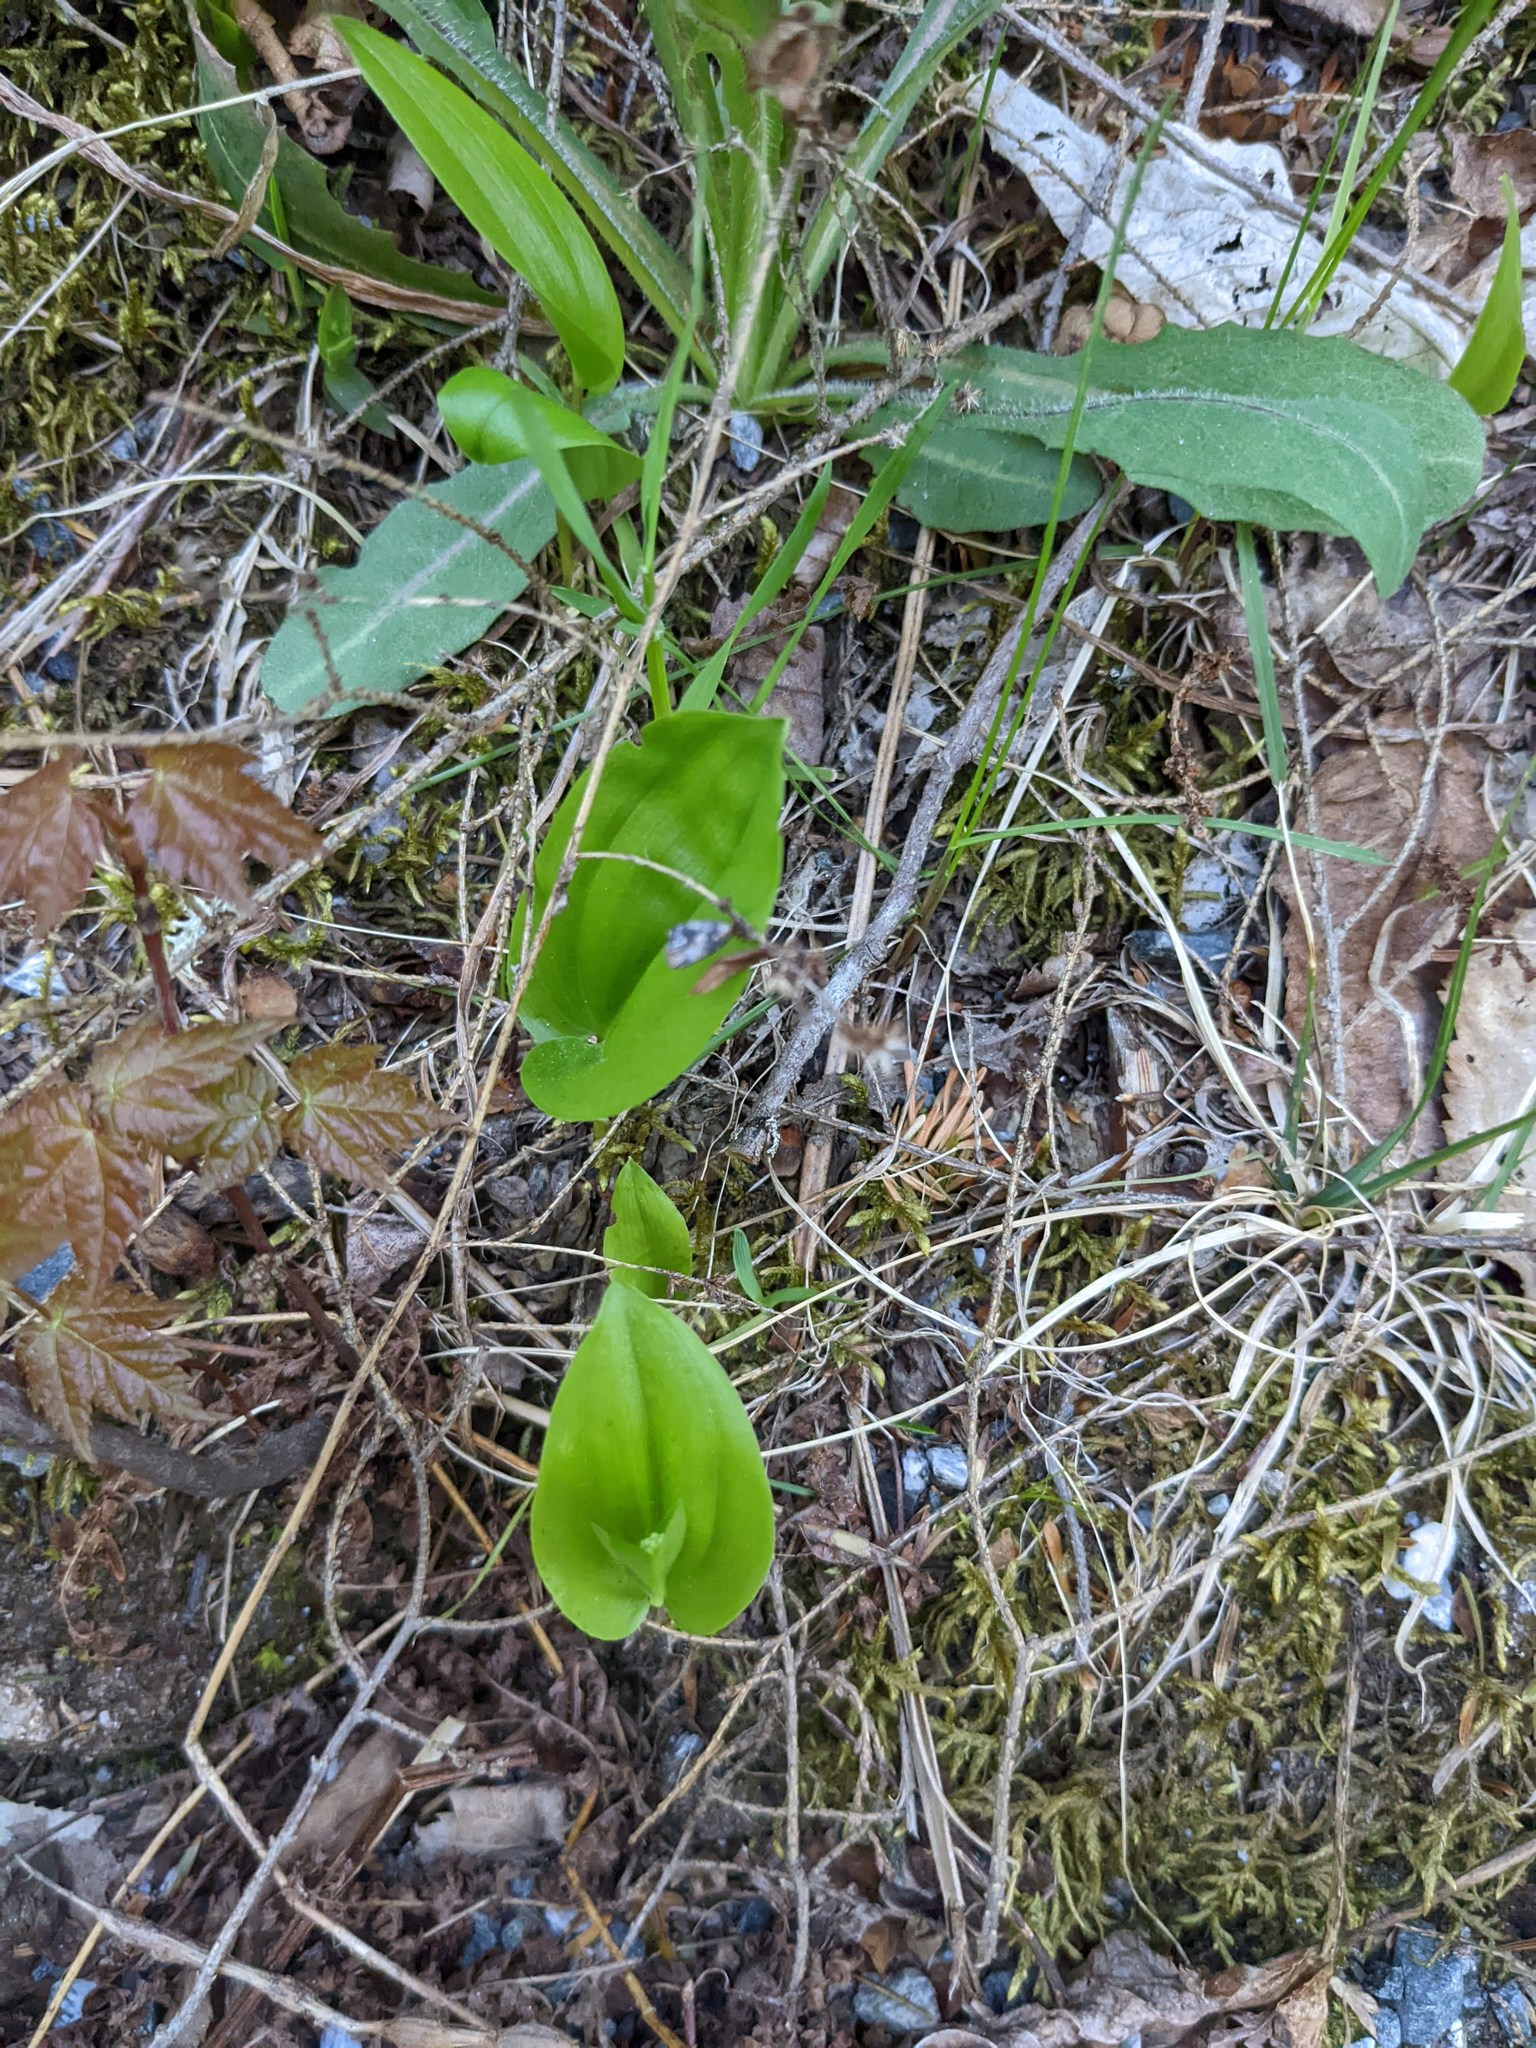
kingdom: Plantae
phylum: Tracheophyta
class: Liliopsida
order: Asparagales
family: Asparagaceae
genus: Maianthemum
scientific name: Maianthemum canadense
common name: False lily-of-the-valley
